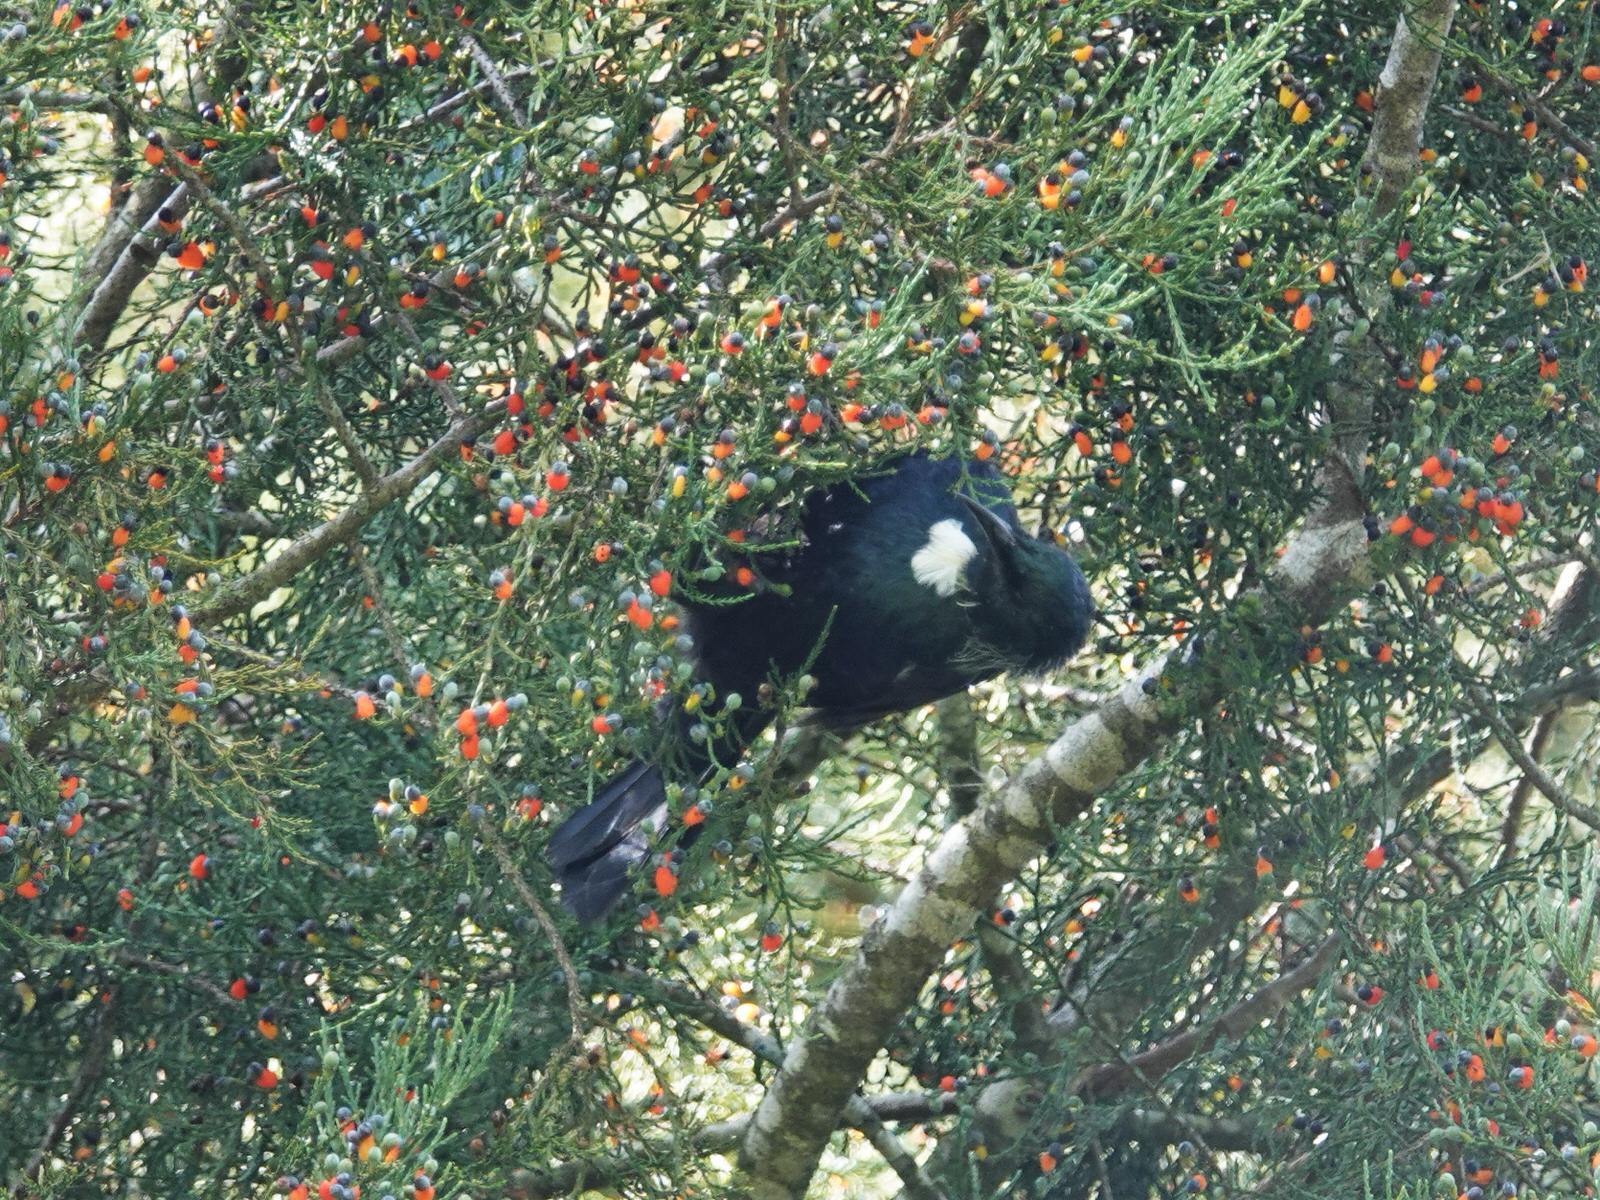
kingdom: Animalia
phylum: Chordata
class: Aves
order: Passeriformes
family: Meliphagidae
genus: Prosthemadera
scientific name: Prosthemadera novaeseelandiae
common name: Tui
